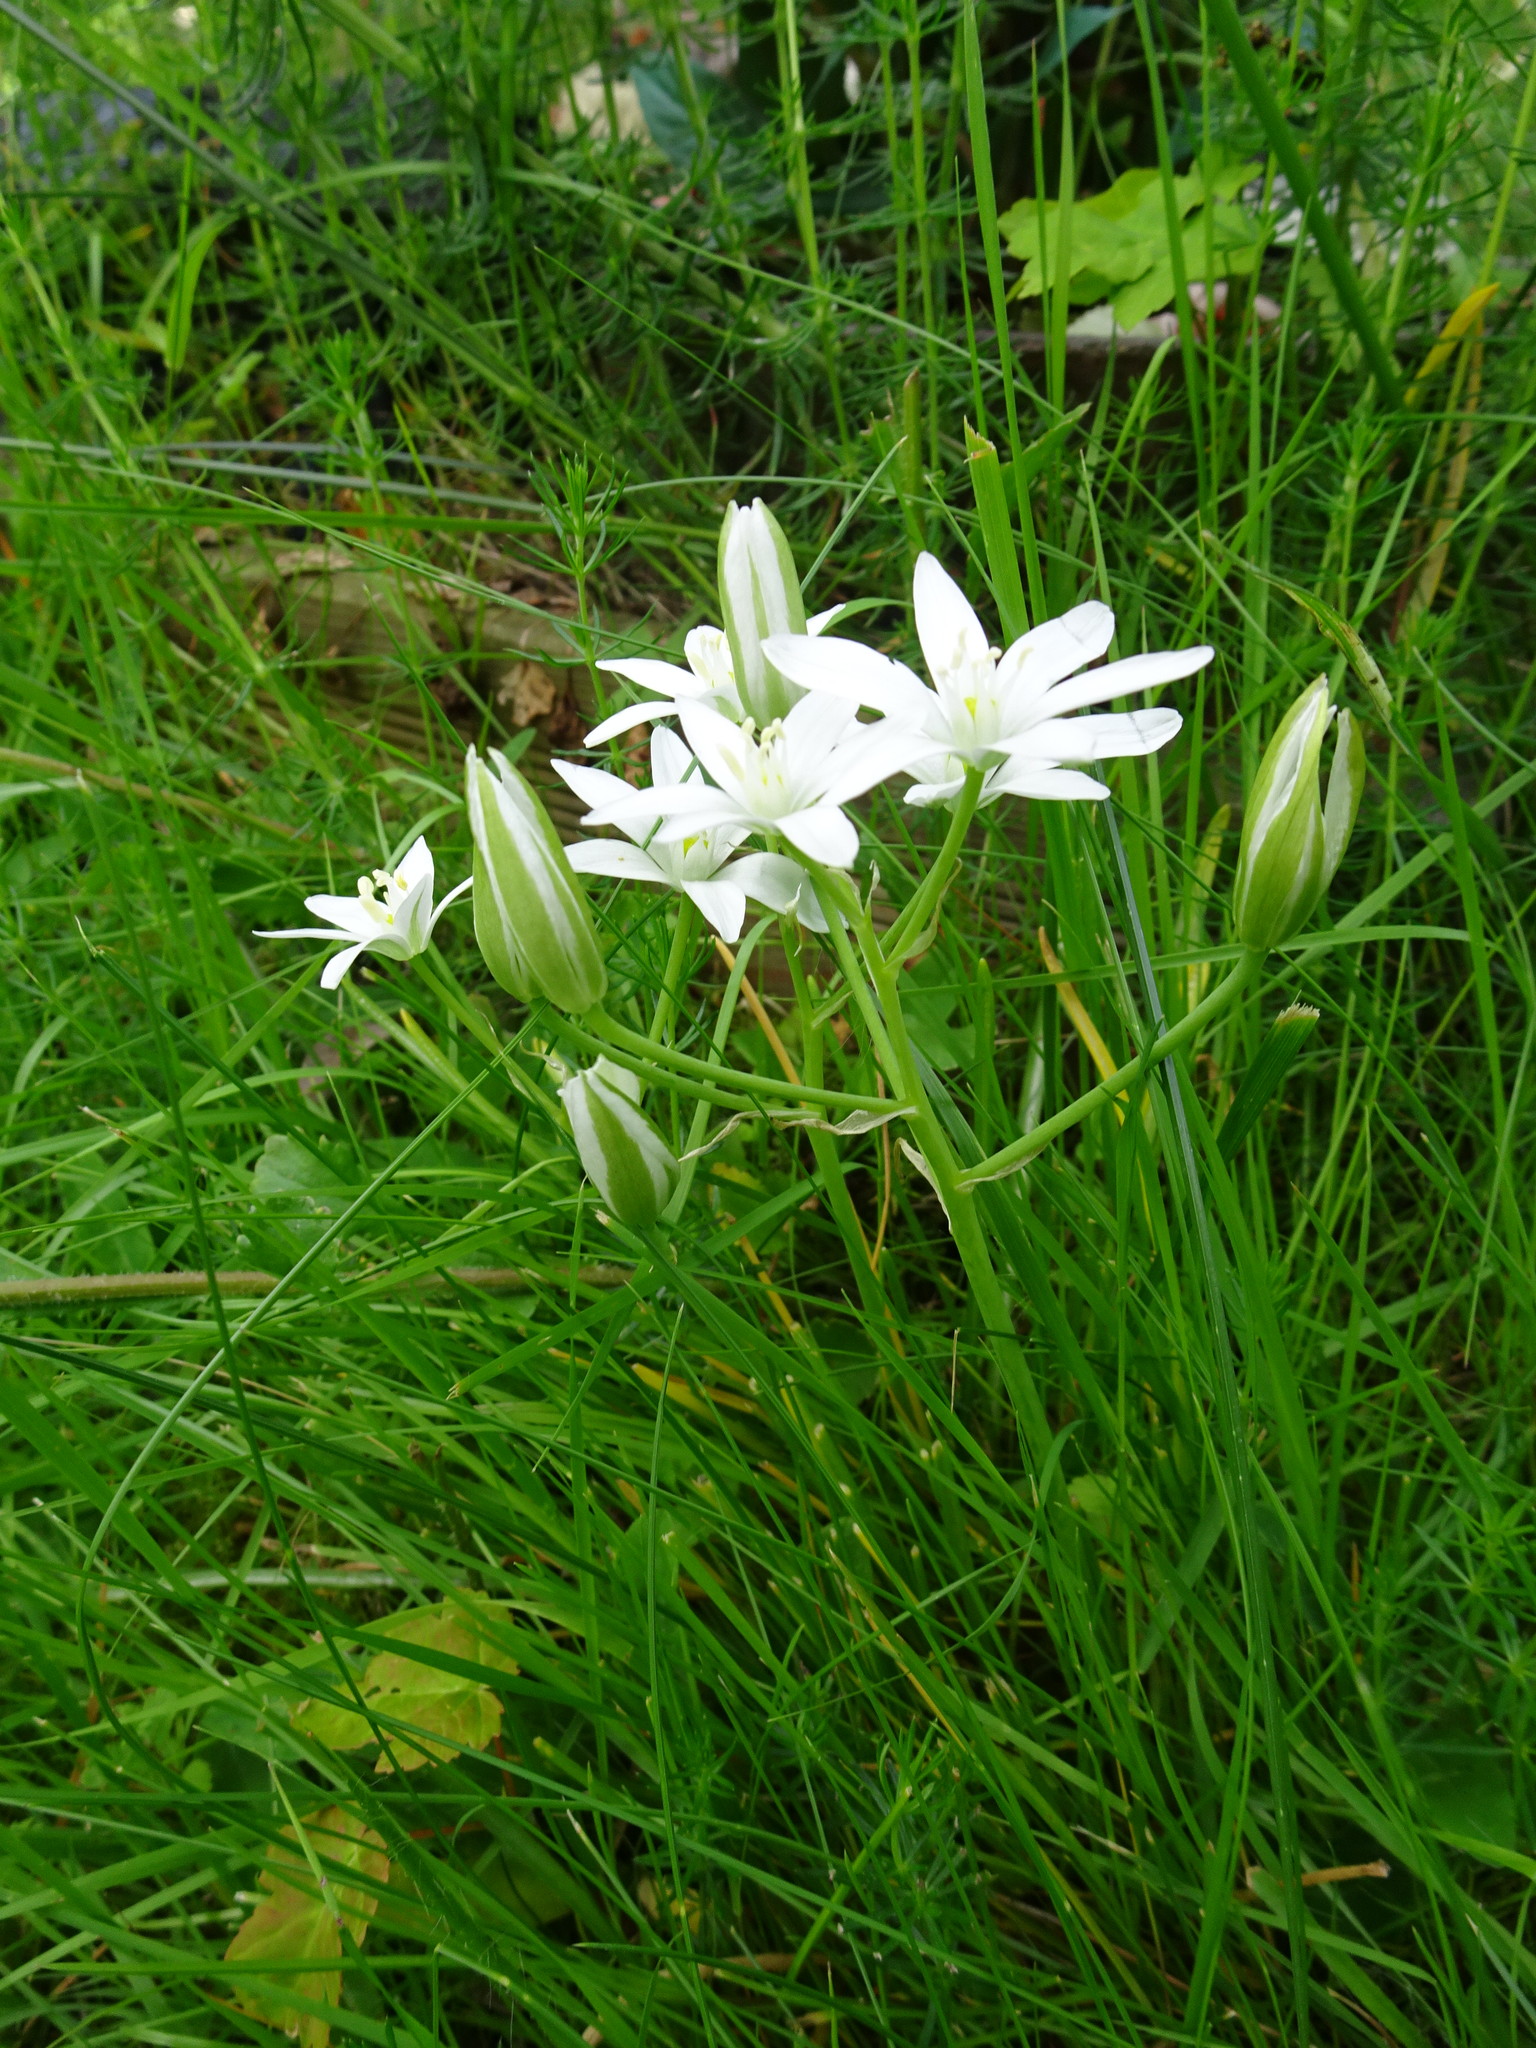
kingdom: Plantae
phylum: Tracheophyta
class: Liliopsida
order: Asparagales
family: Asparagaceae
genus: Ornithogalum
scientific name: Ornithogalum umbellatum
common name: Garden star-of-bethlehem
